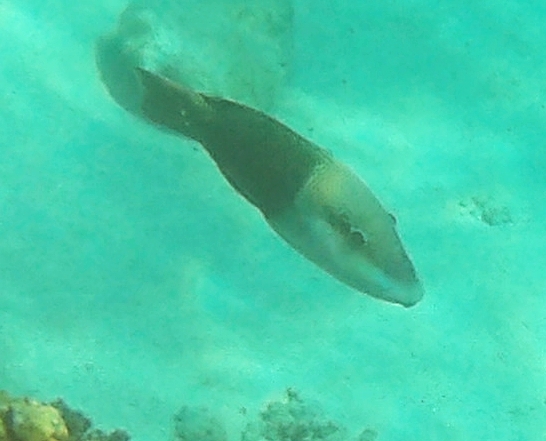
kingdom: Animalia
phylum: Chordata
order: Perciformes
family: Labridae
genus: Hemigymnus
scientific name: Hemigymnus melapterus
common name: Blackeye thicklip
